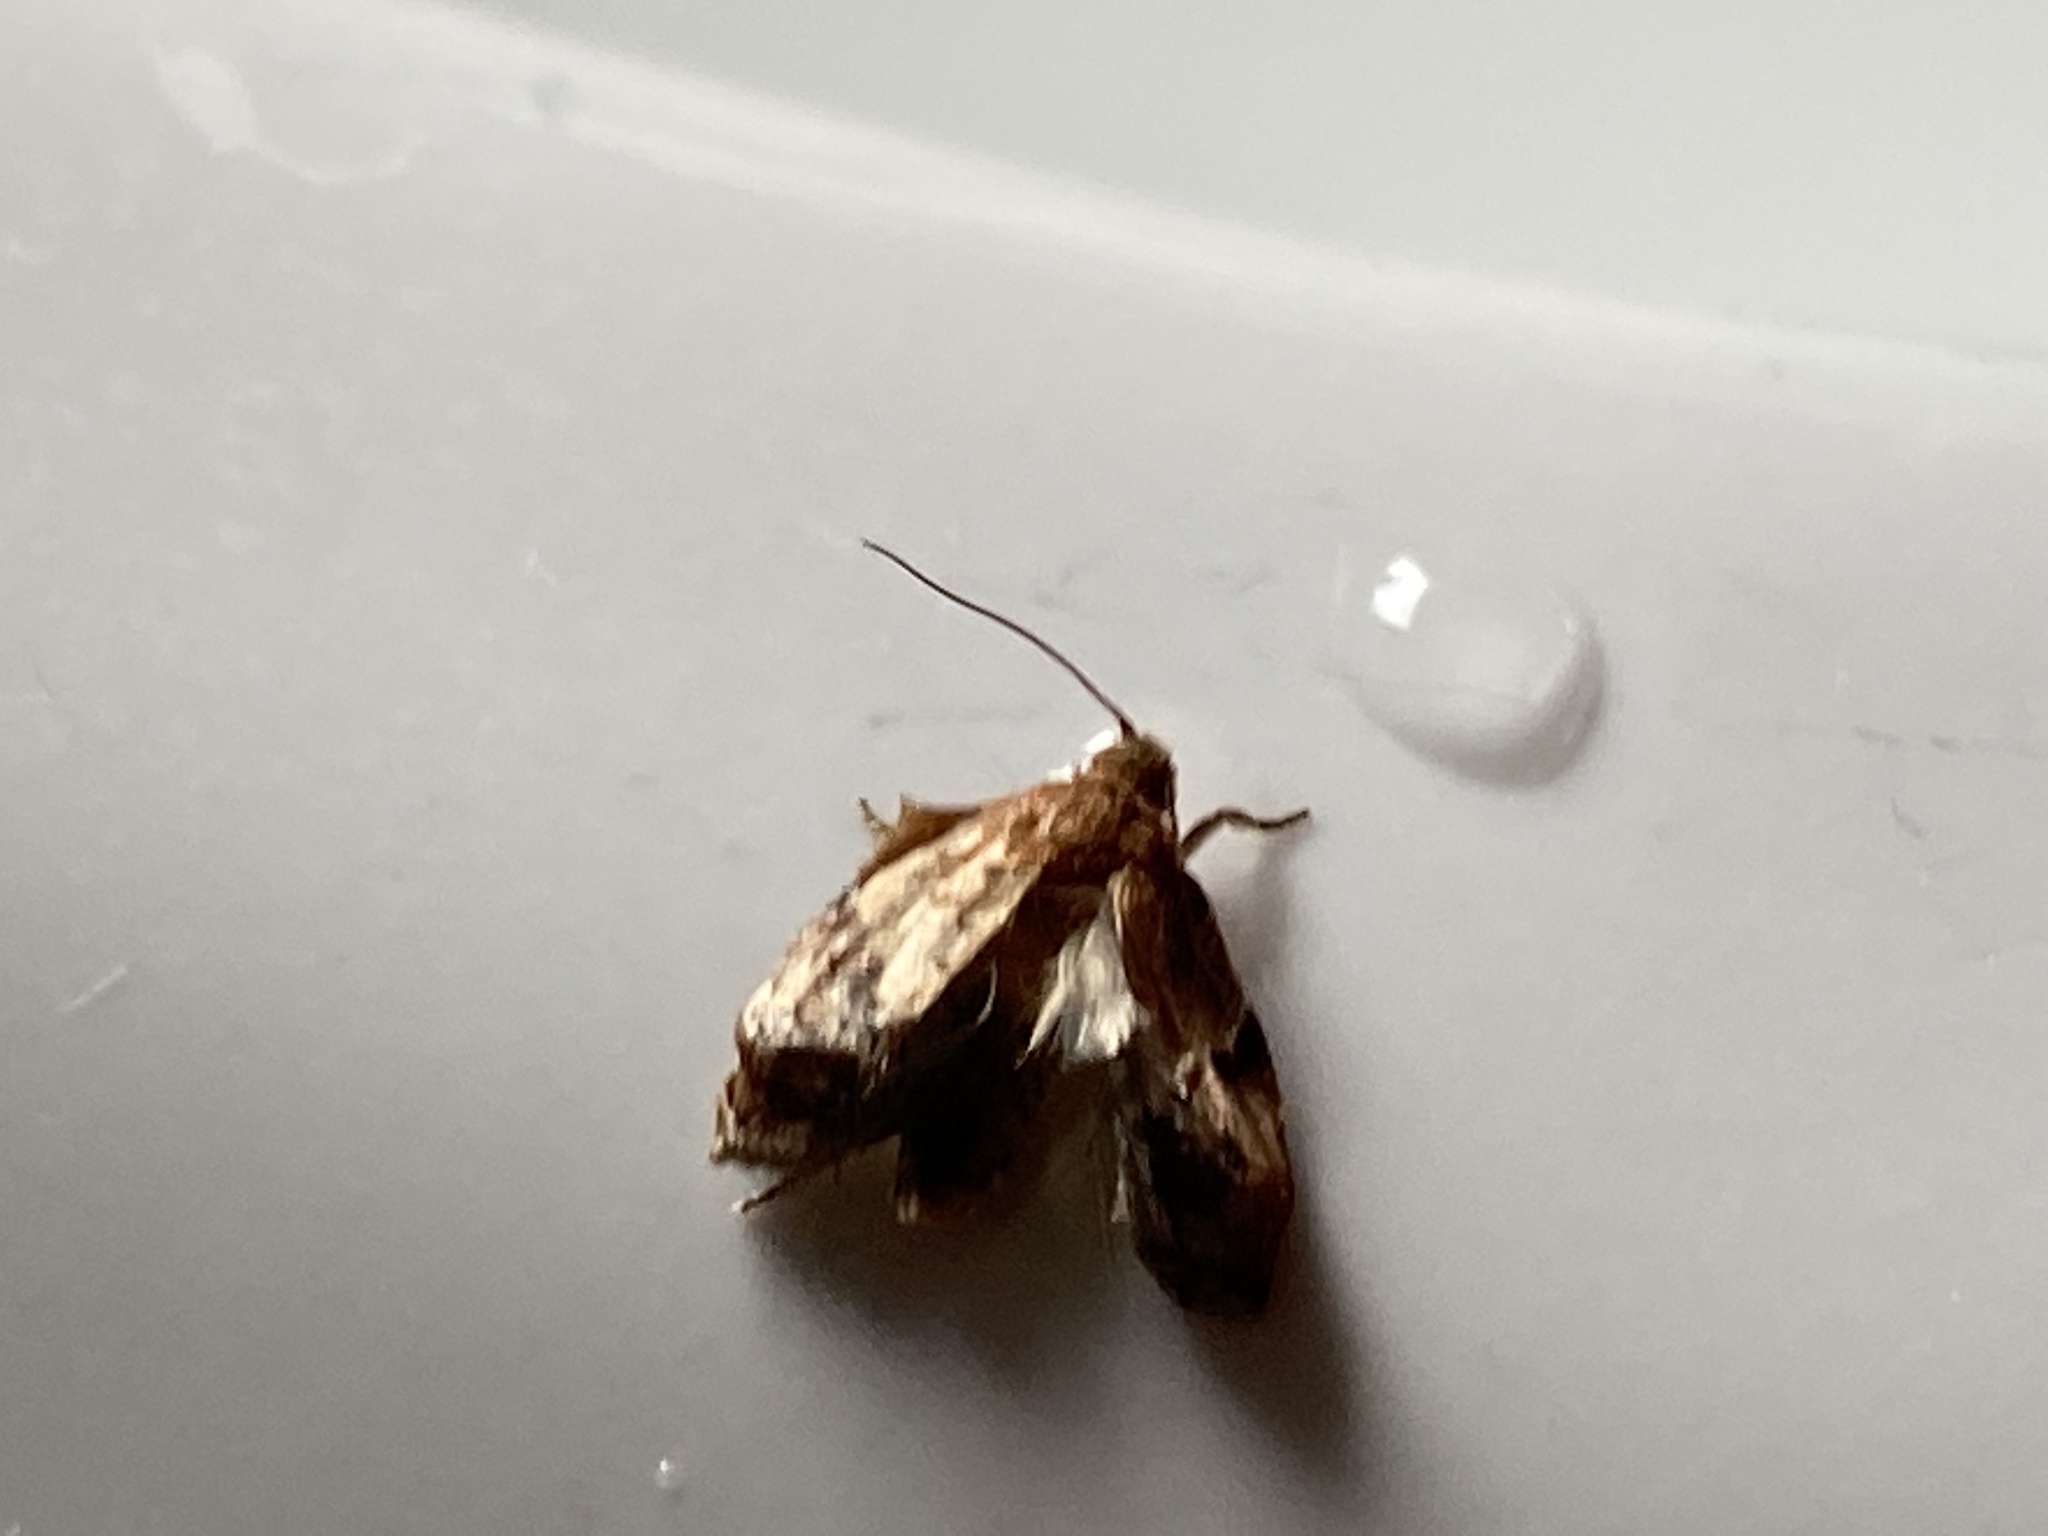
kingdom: Animalia
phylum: Arthropoda
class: Insecta
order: Lepidoptera
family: Choreutidae
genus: Choreutis
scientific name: Choreutis pariana
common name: Apple leaf skeletoniser
